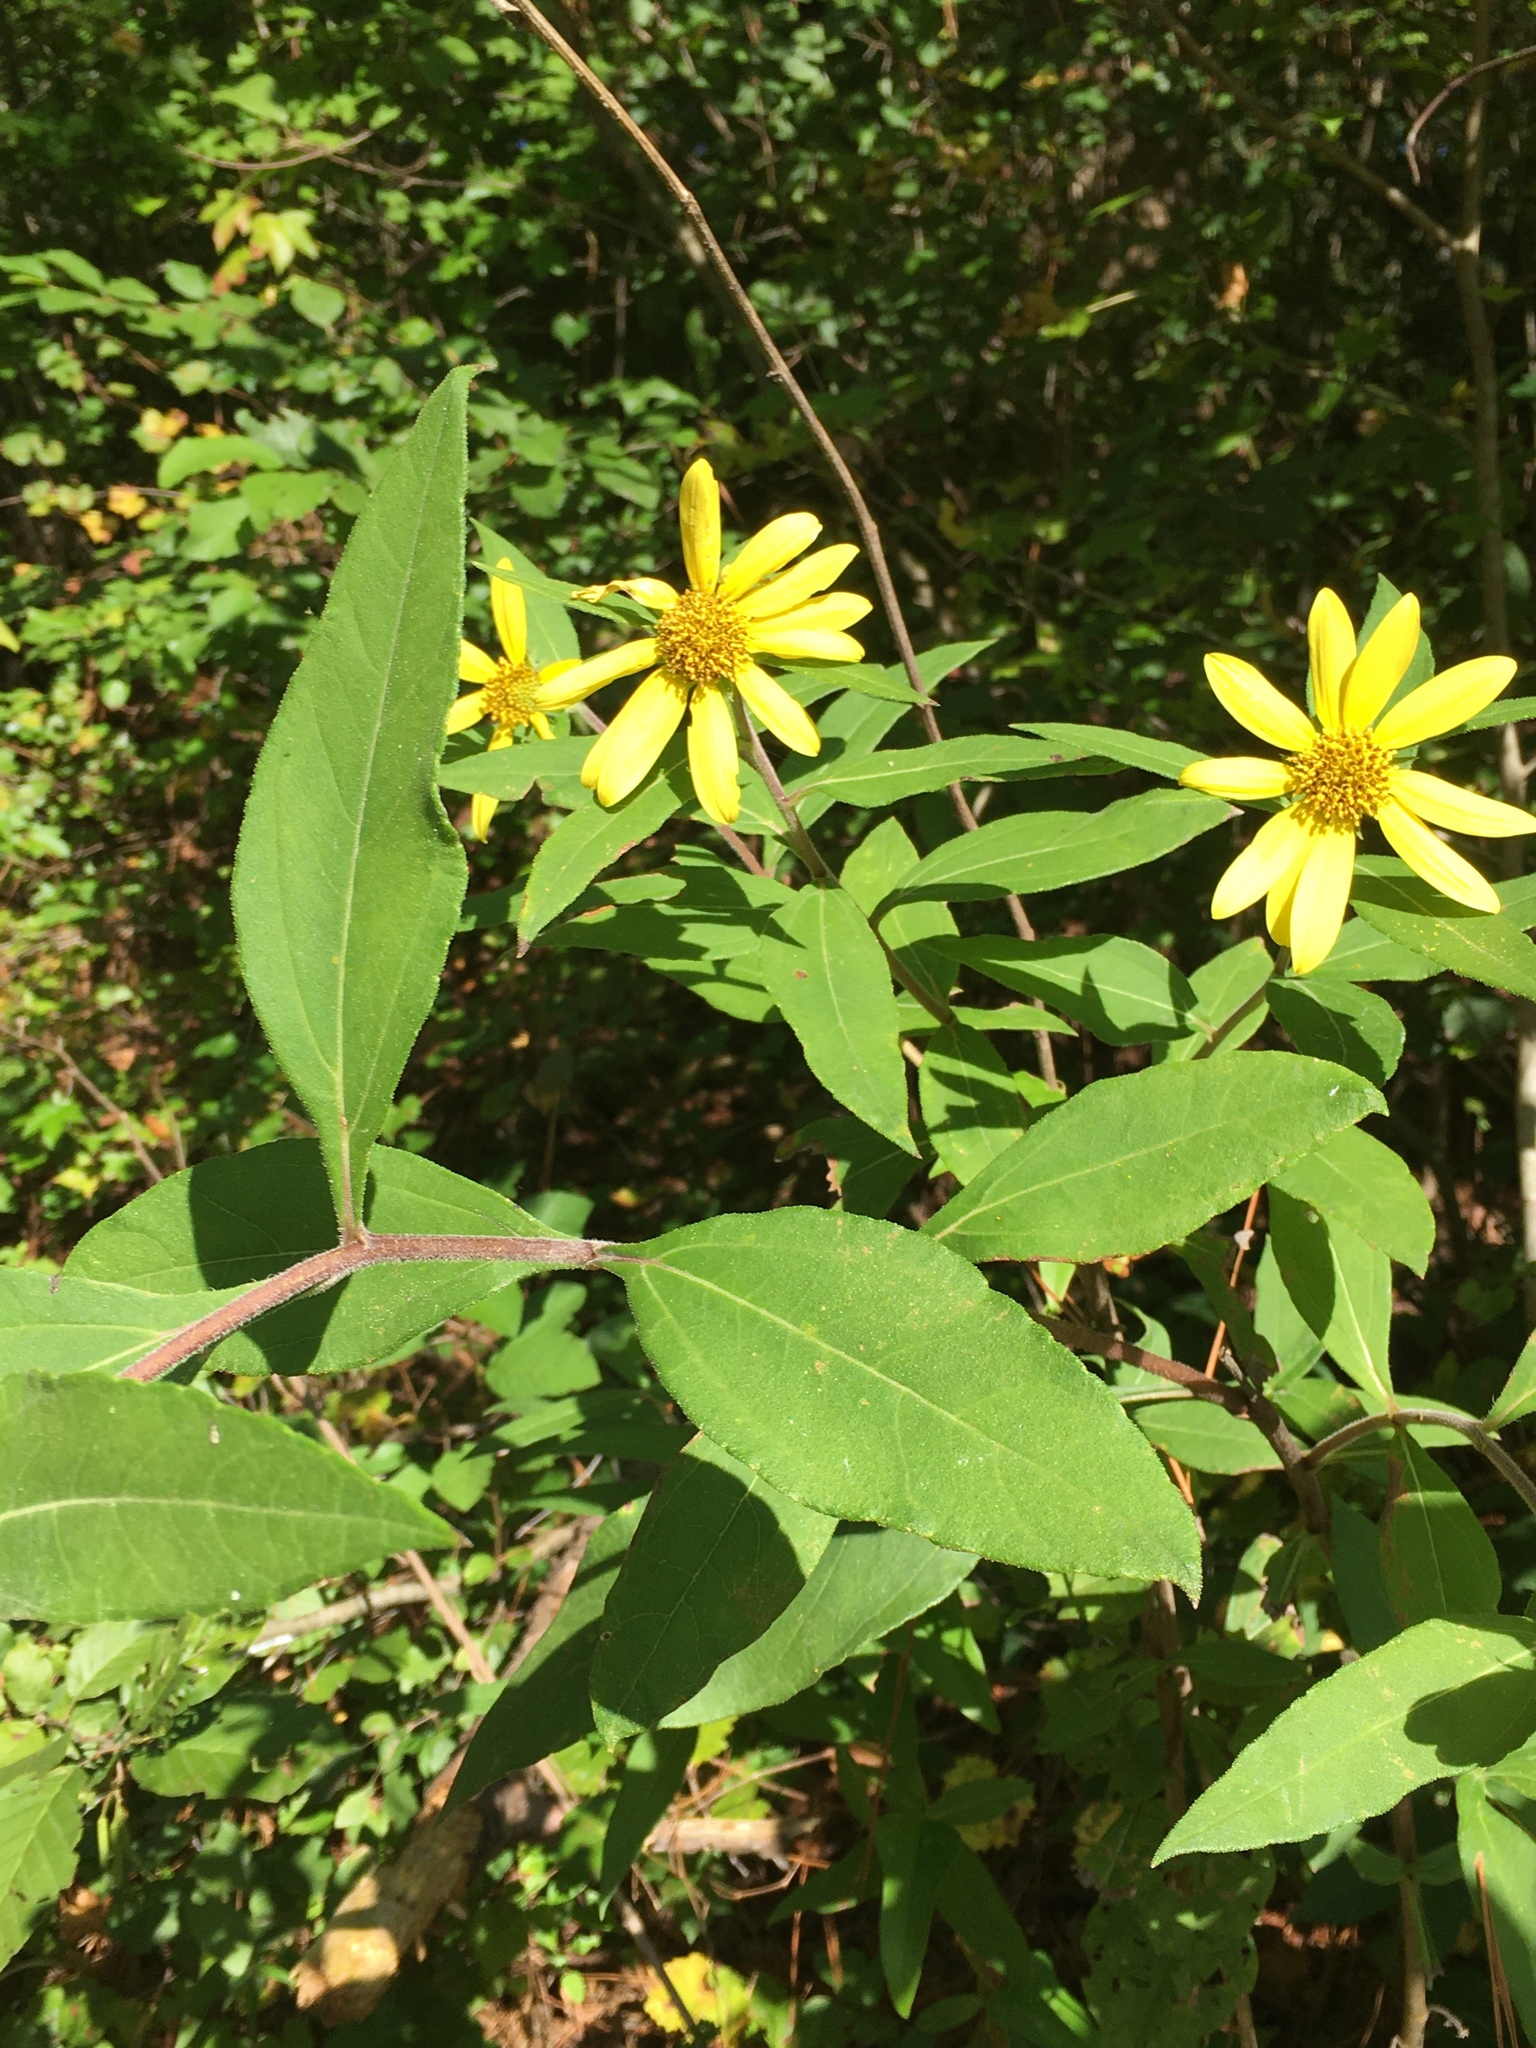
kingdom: Plantae
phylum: Tracheophyta
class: Magnoliopsida
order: Asterales
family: Asteraceae
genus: Helianthus
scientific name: Helianthus tuberosus
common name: Jerusalem artichoke
